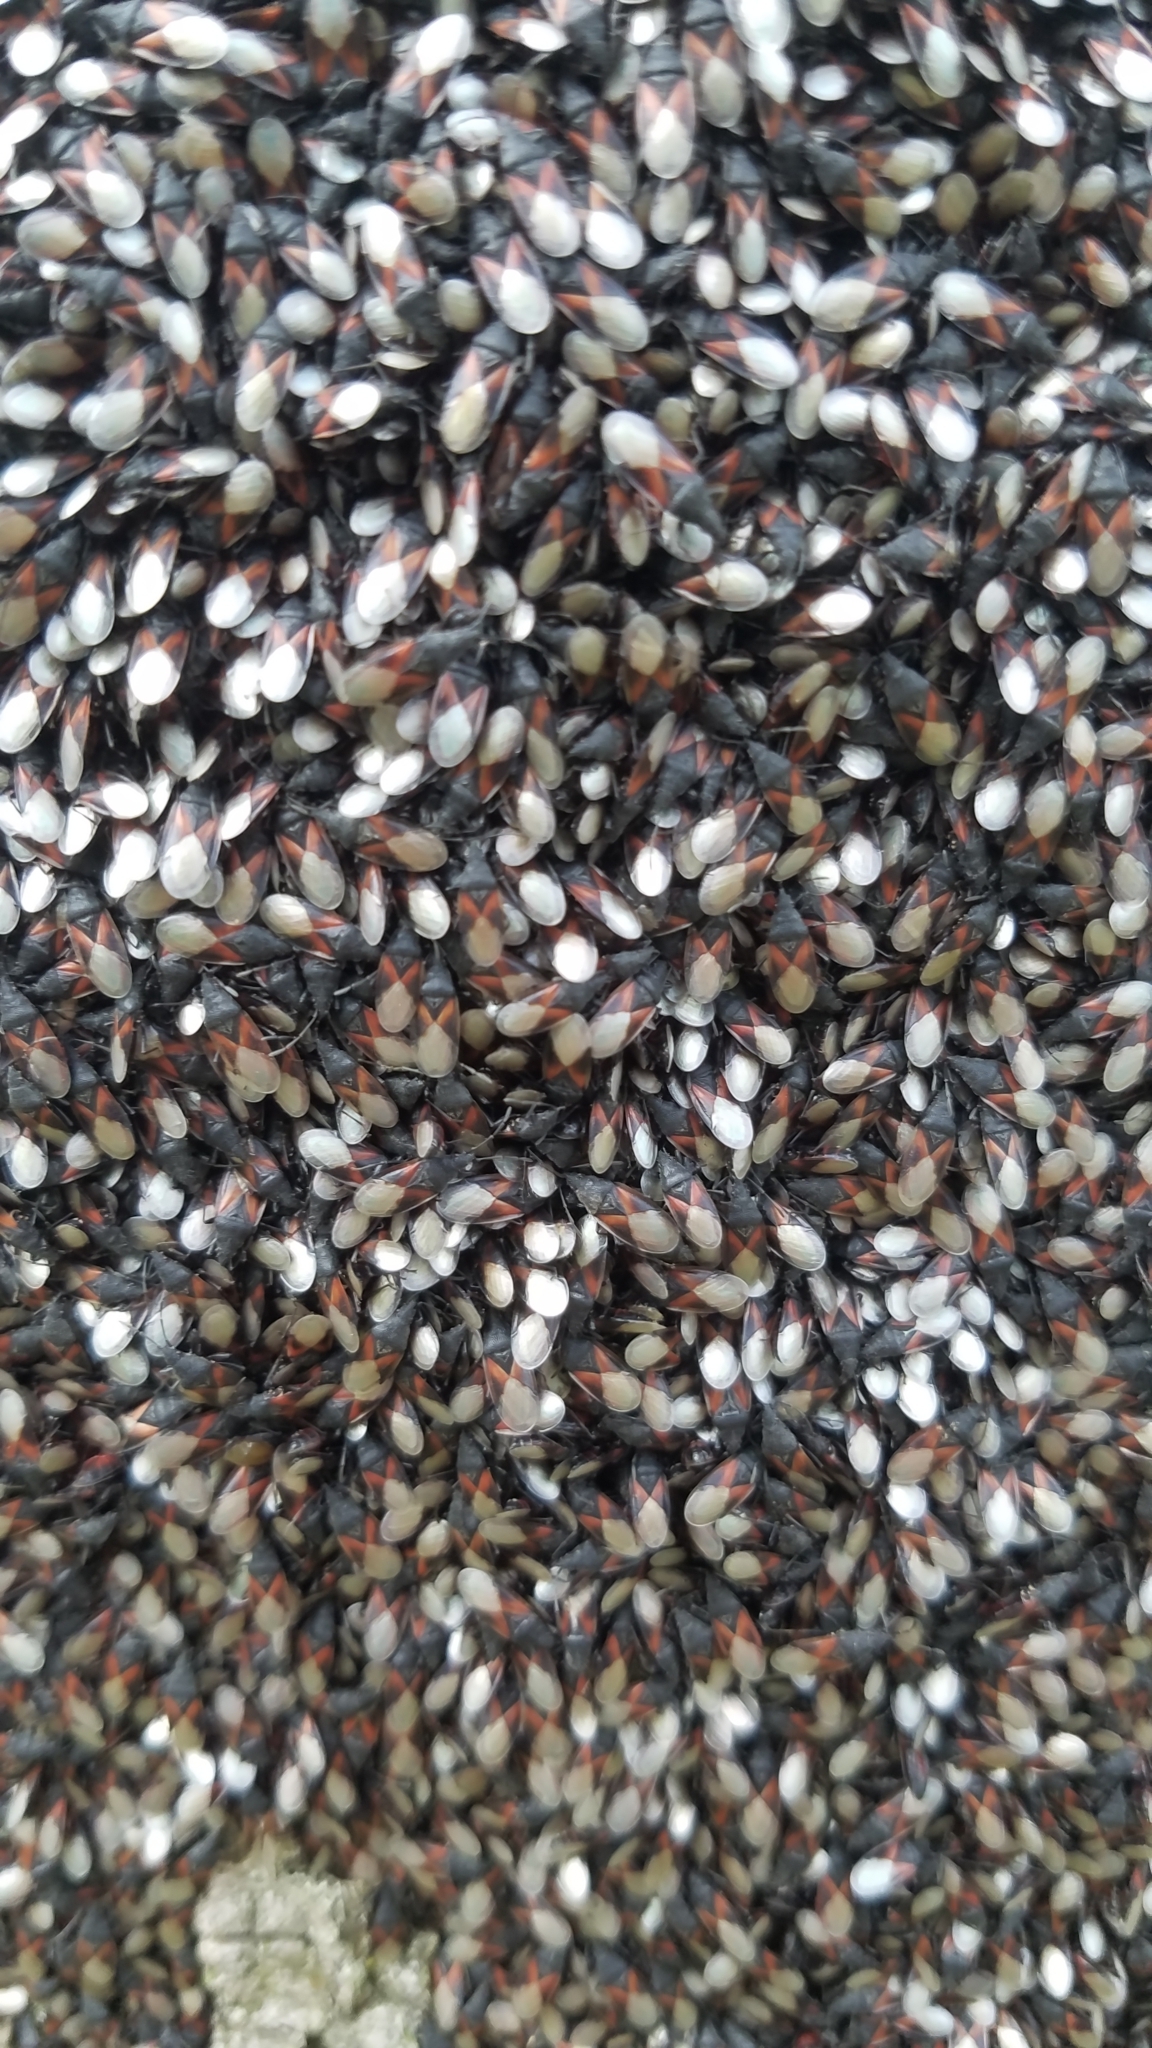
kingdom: Animalia
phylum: Arthropoda
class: Insecta
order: Hemiptera
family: Oxycarenidae
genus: Oxycarenus
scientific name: Oxycarenus lavaterae
